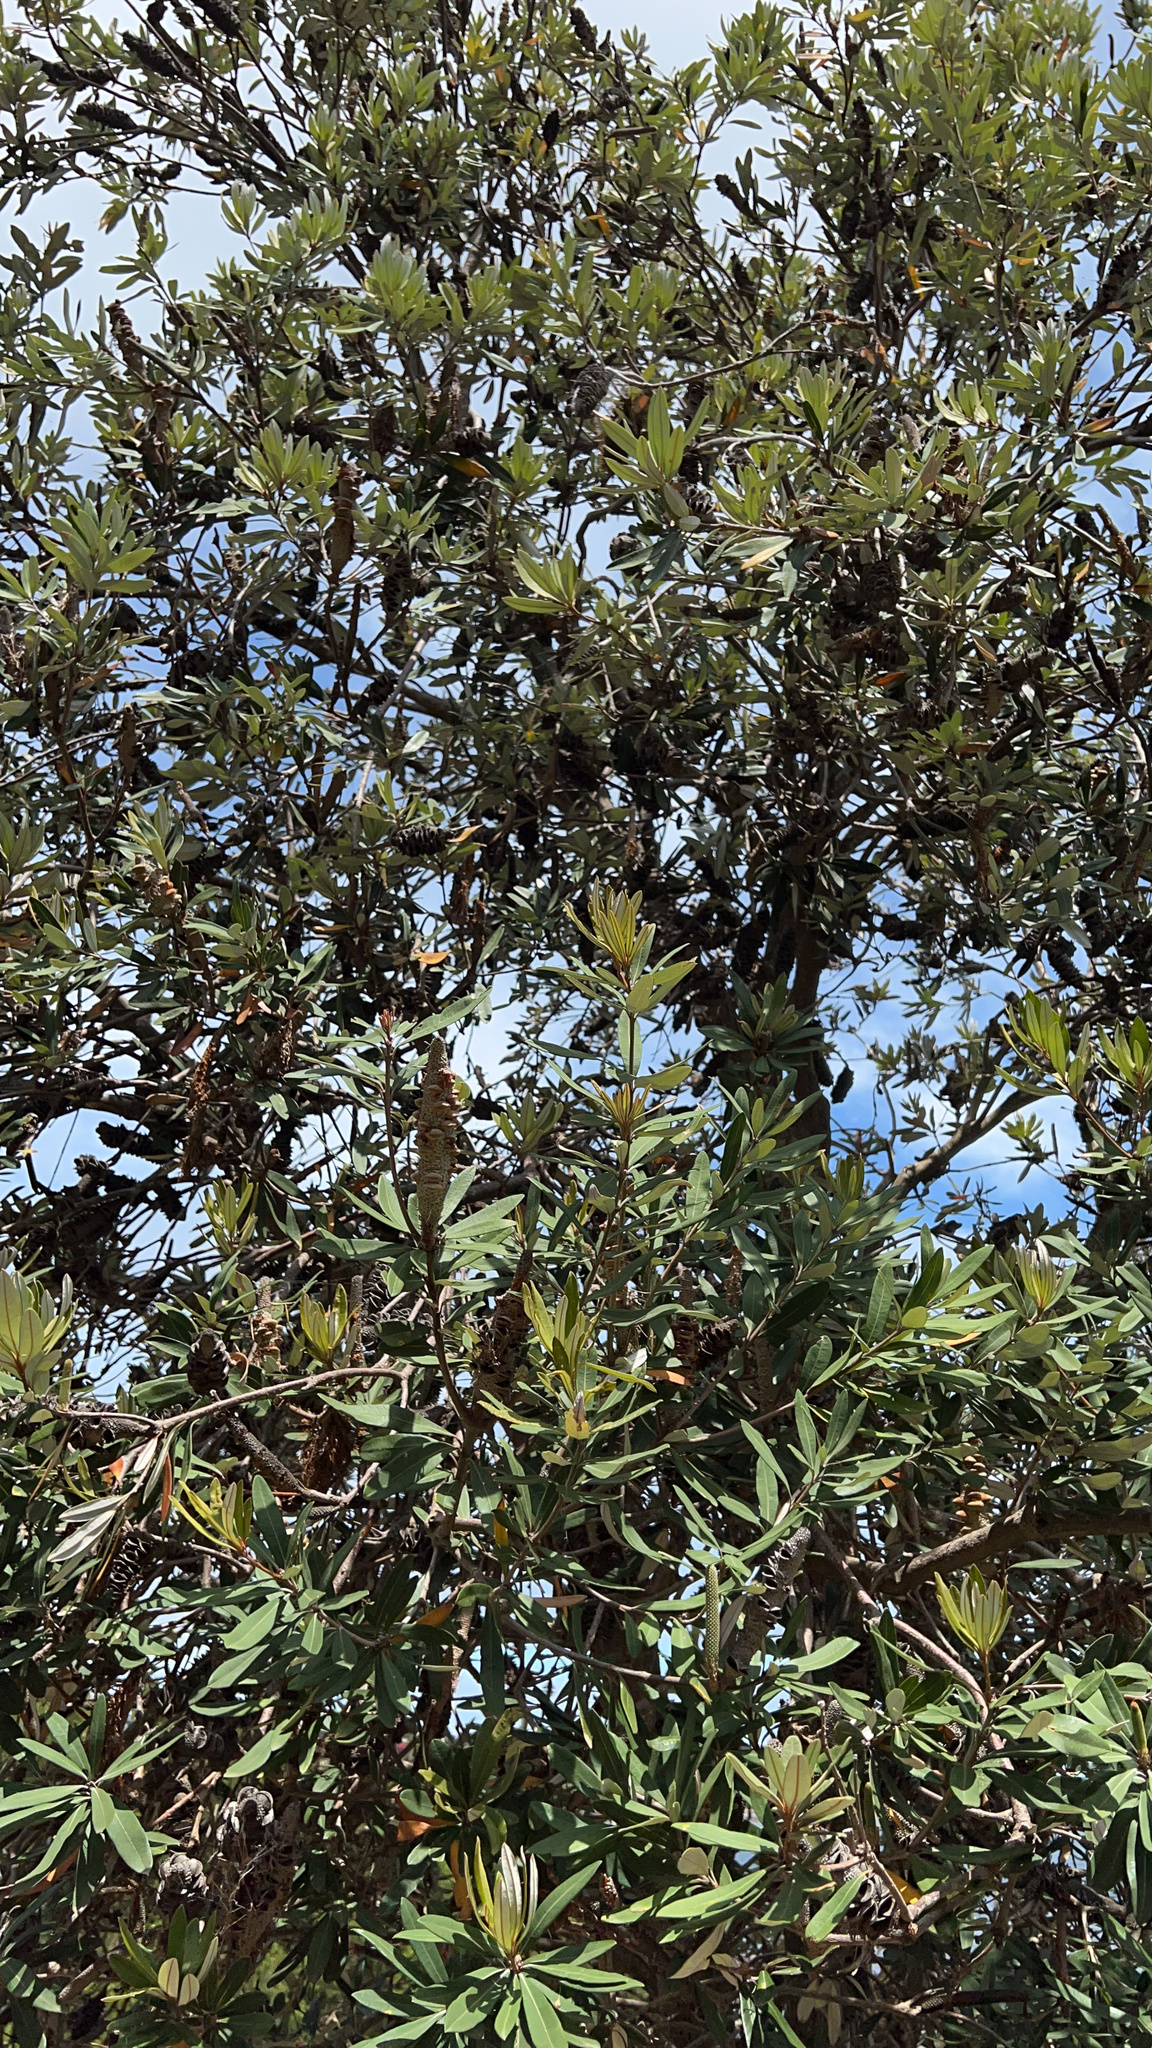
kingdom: Plantae
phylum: Tracheophyta
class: Magnoliopsida
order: Proteales
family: Proteaceae
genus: Banksia
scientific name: Banksia integrifolia
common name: White-honeysuckle
